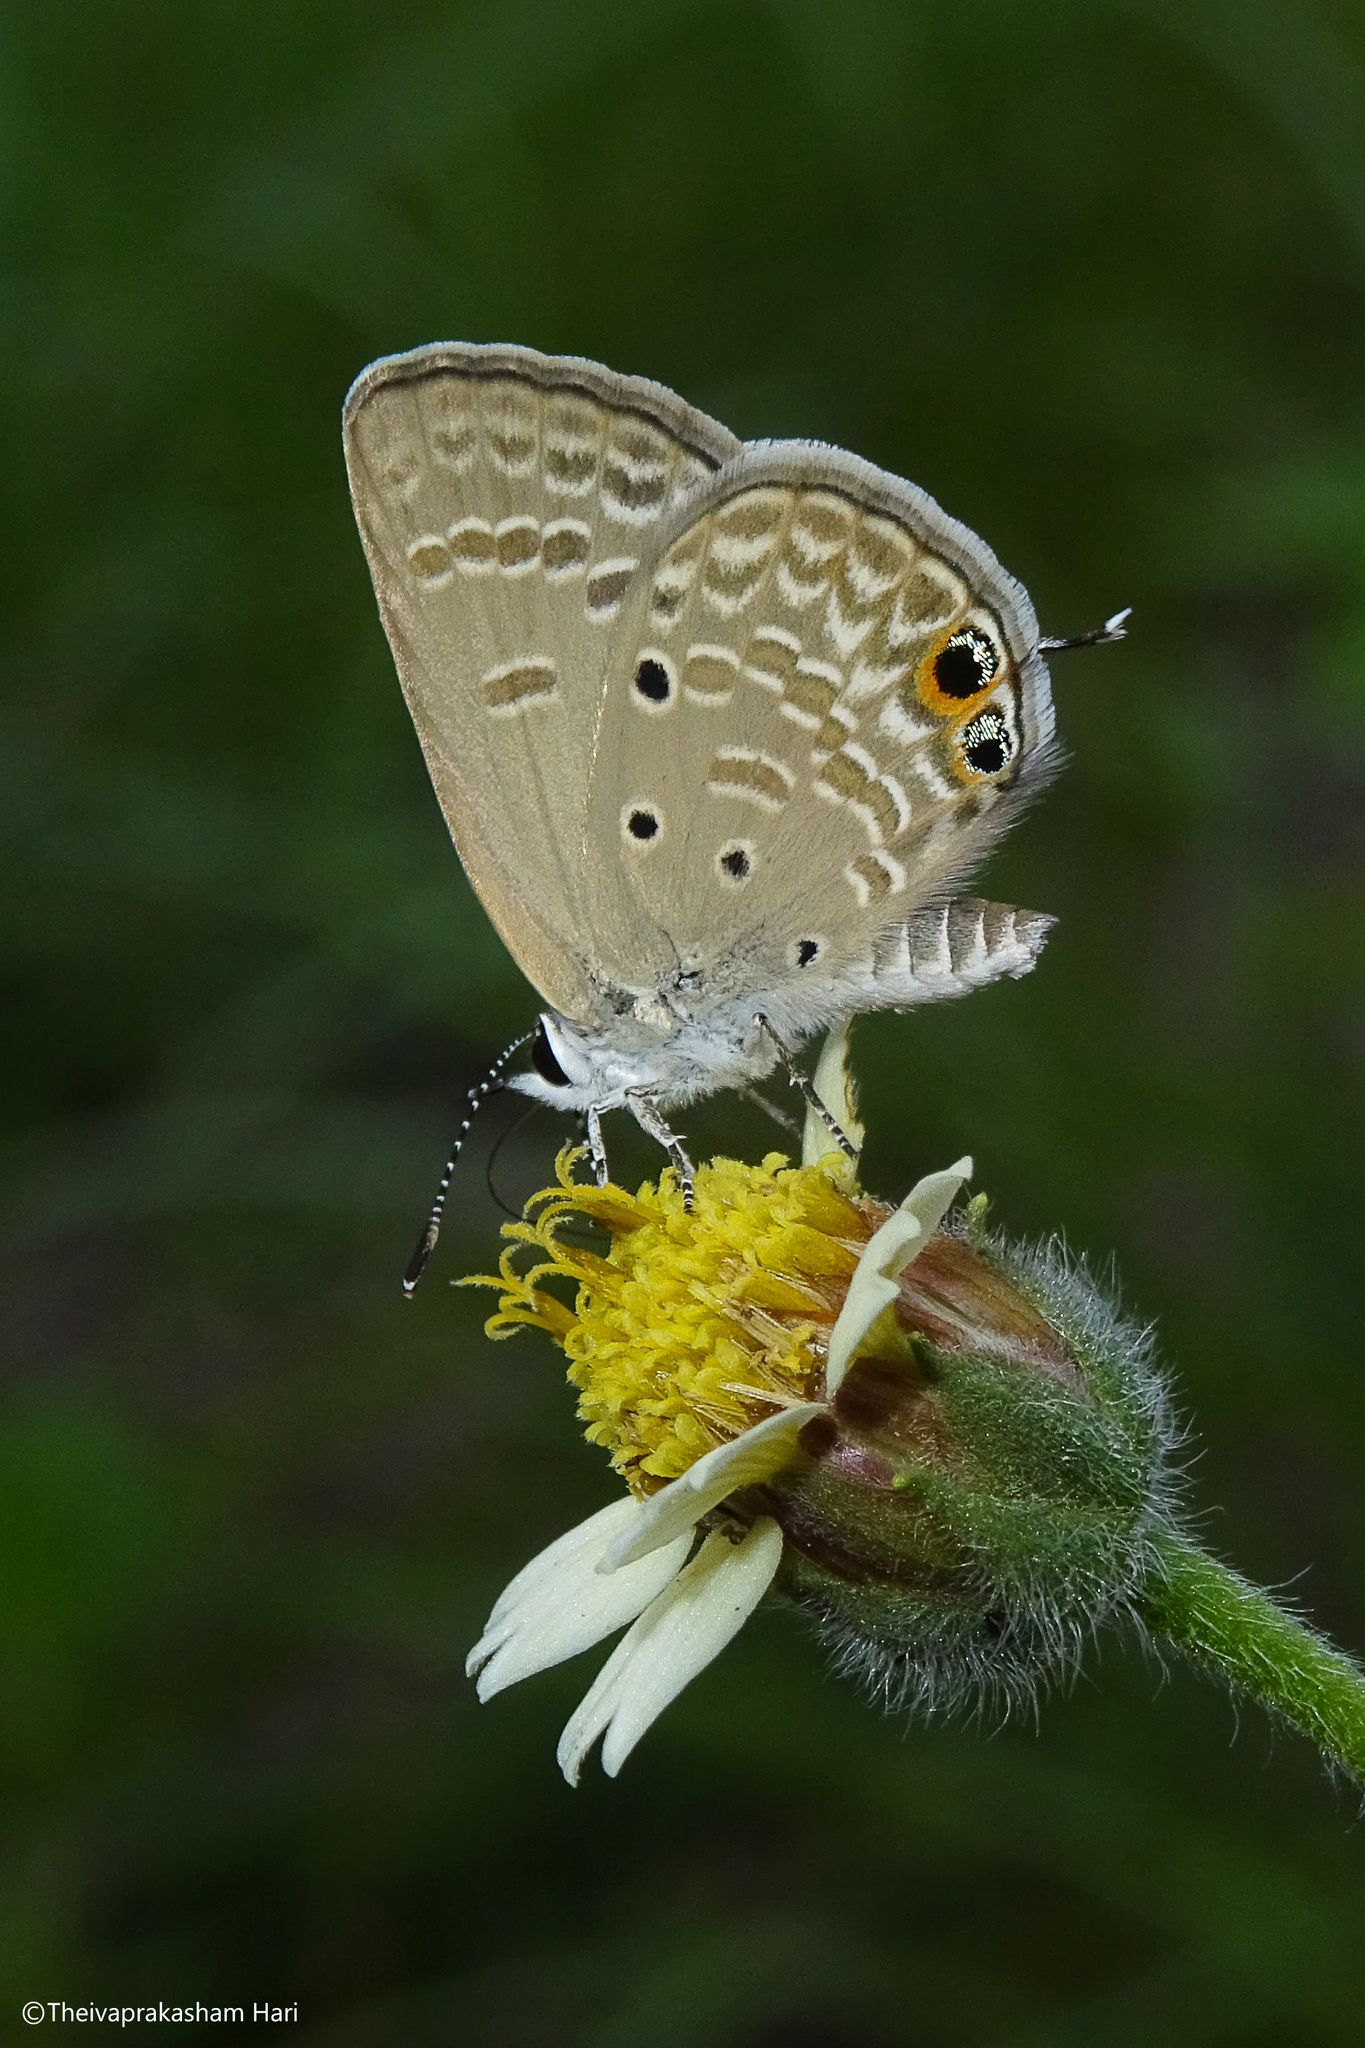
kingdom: Animalia
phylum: Arthropoda
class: Insecta
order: Lepidoptera
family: Lycaenidae
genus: Chilades
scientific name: Chilades parrhasius
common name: Small cupid
